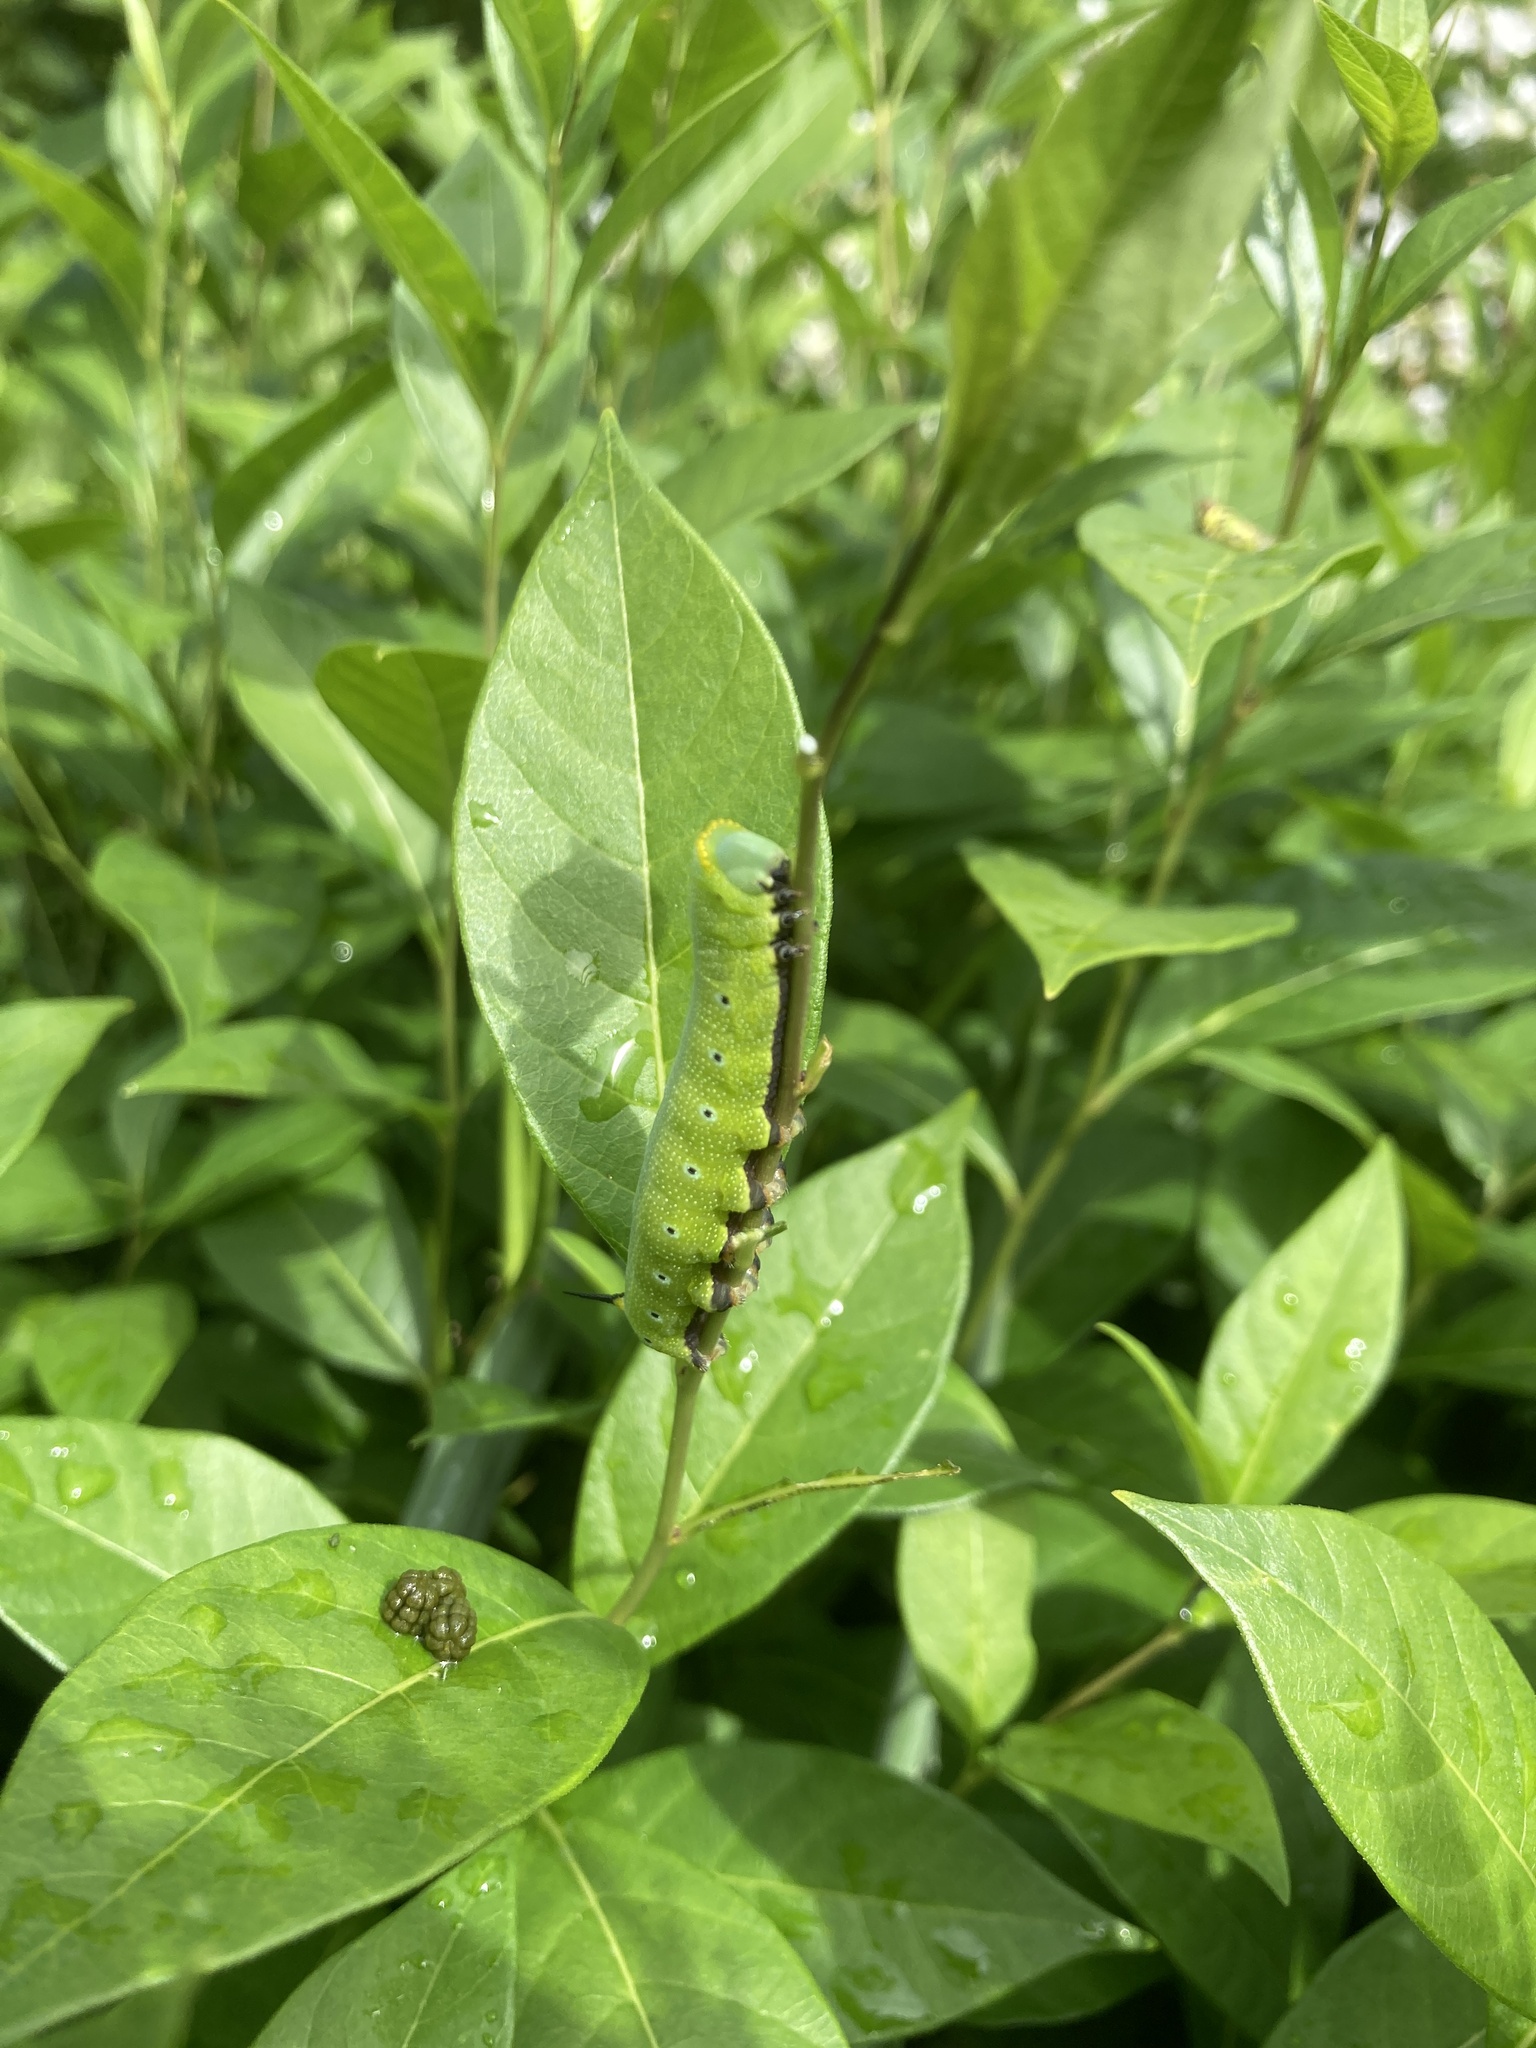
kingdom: Animalia
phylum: Arthropoda
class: Insecta
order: Lepidoptera
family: Sphingidae
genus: Hemaris
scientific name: Hemaris diffinis
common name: Bumblebee moth
